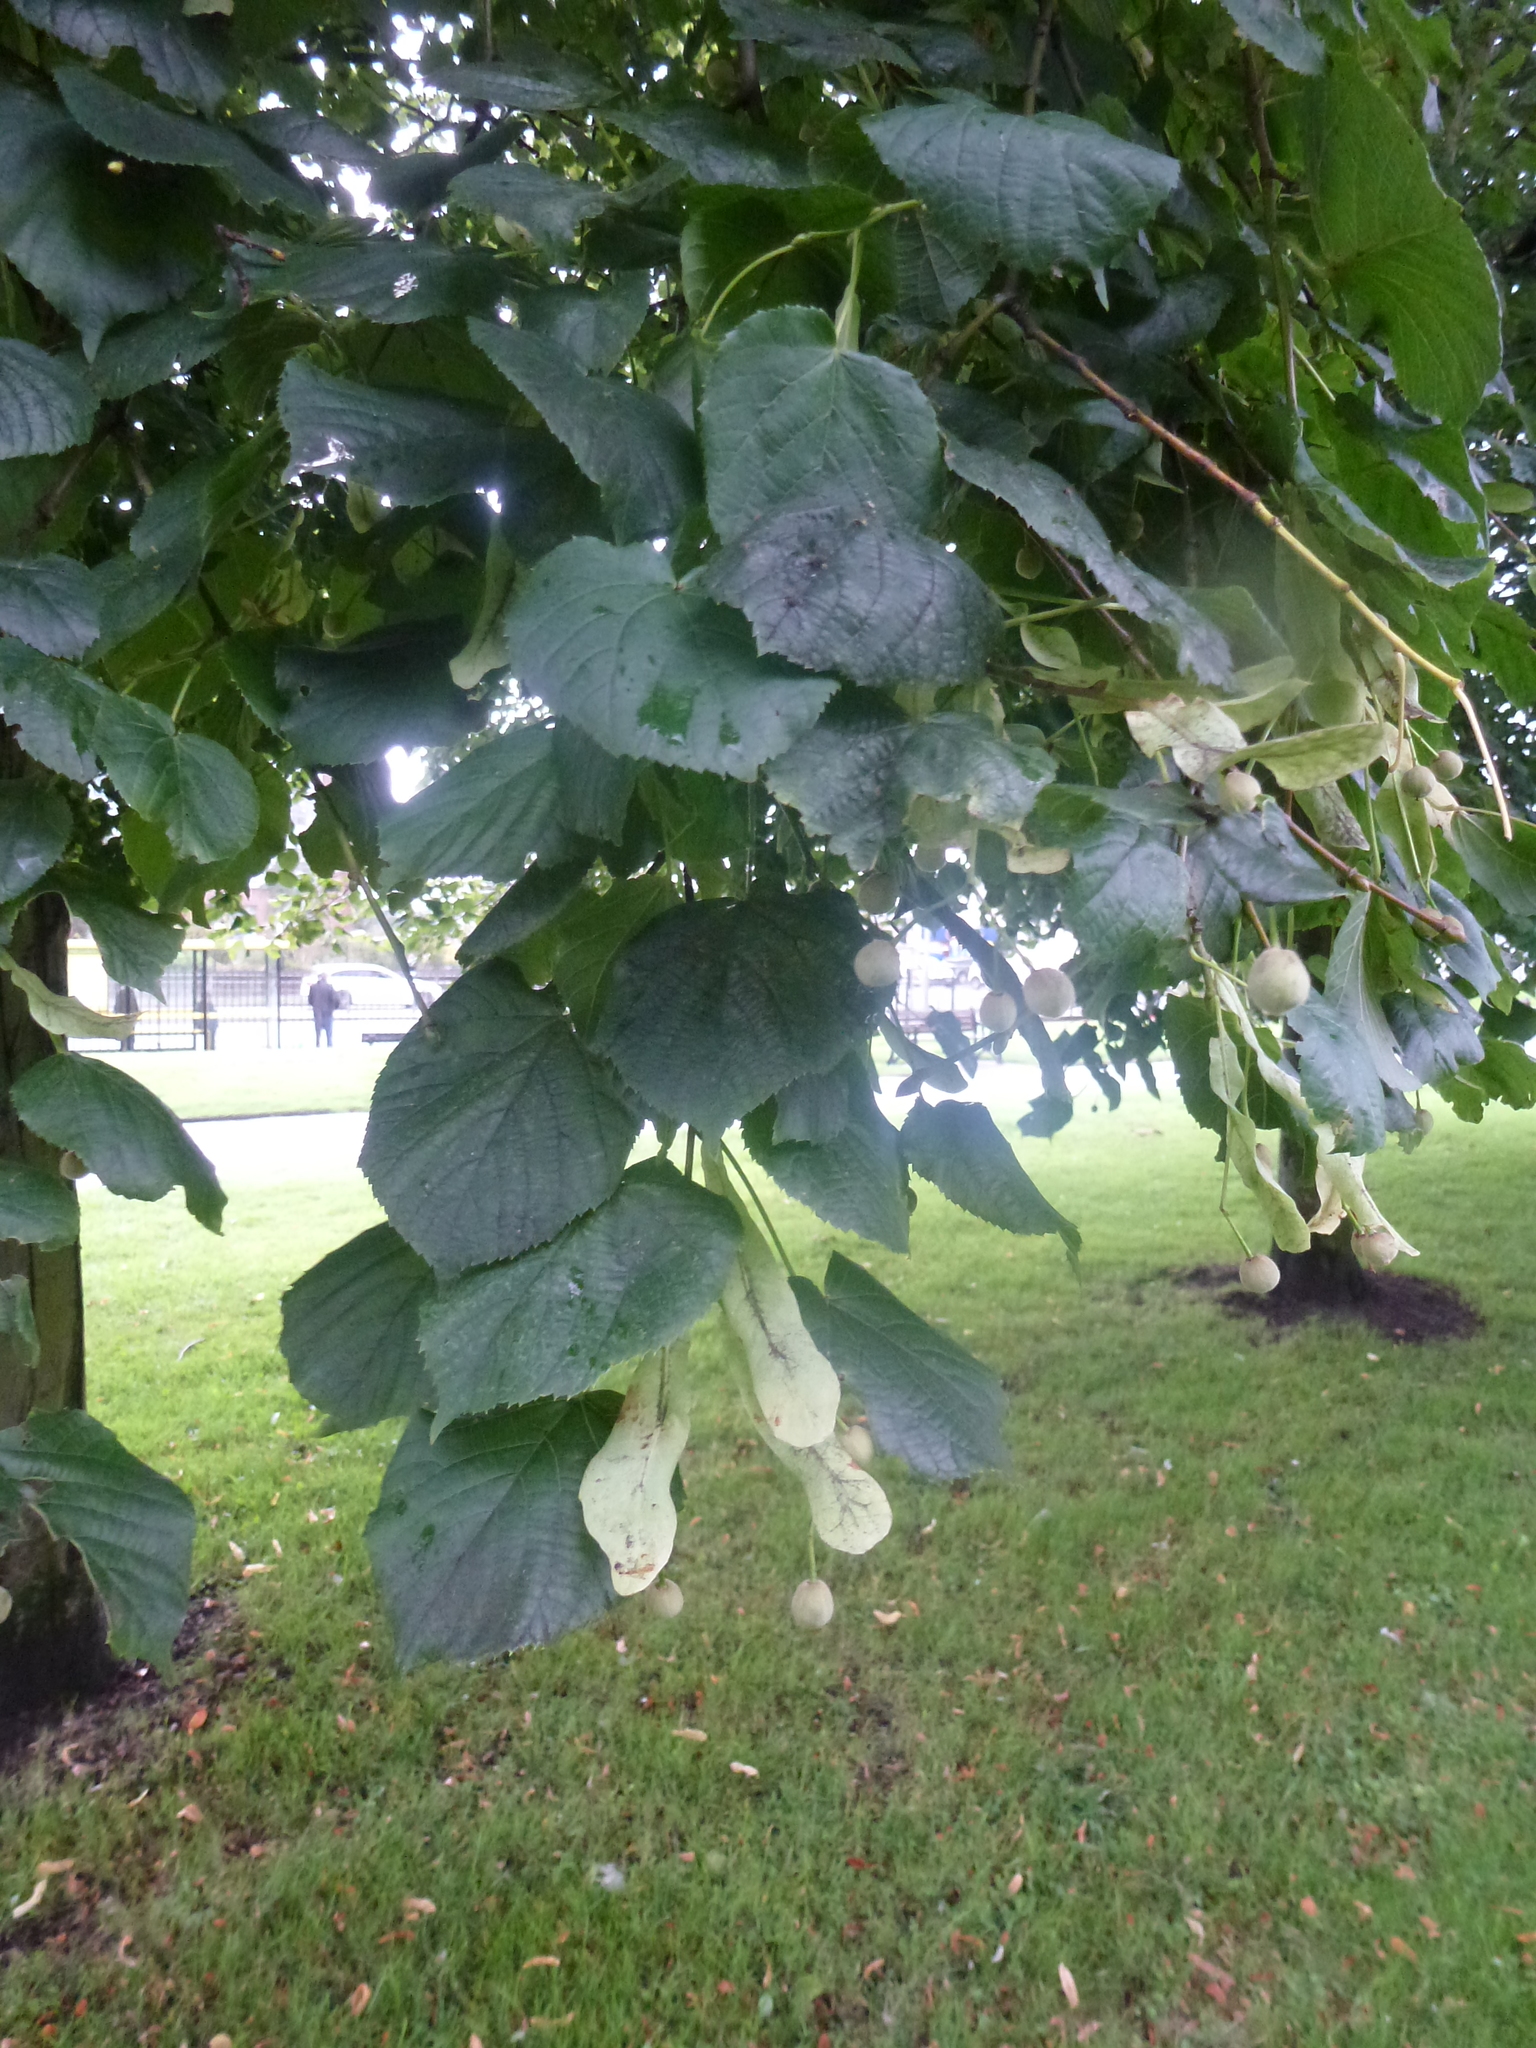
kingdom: Plantae
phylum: Tracheophyta
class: Magnoliopsida
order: Malvales
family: Malvaceae
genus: Tilia
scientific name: Tilia europaea
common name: European linden
